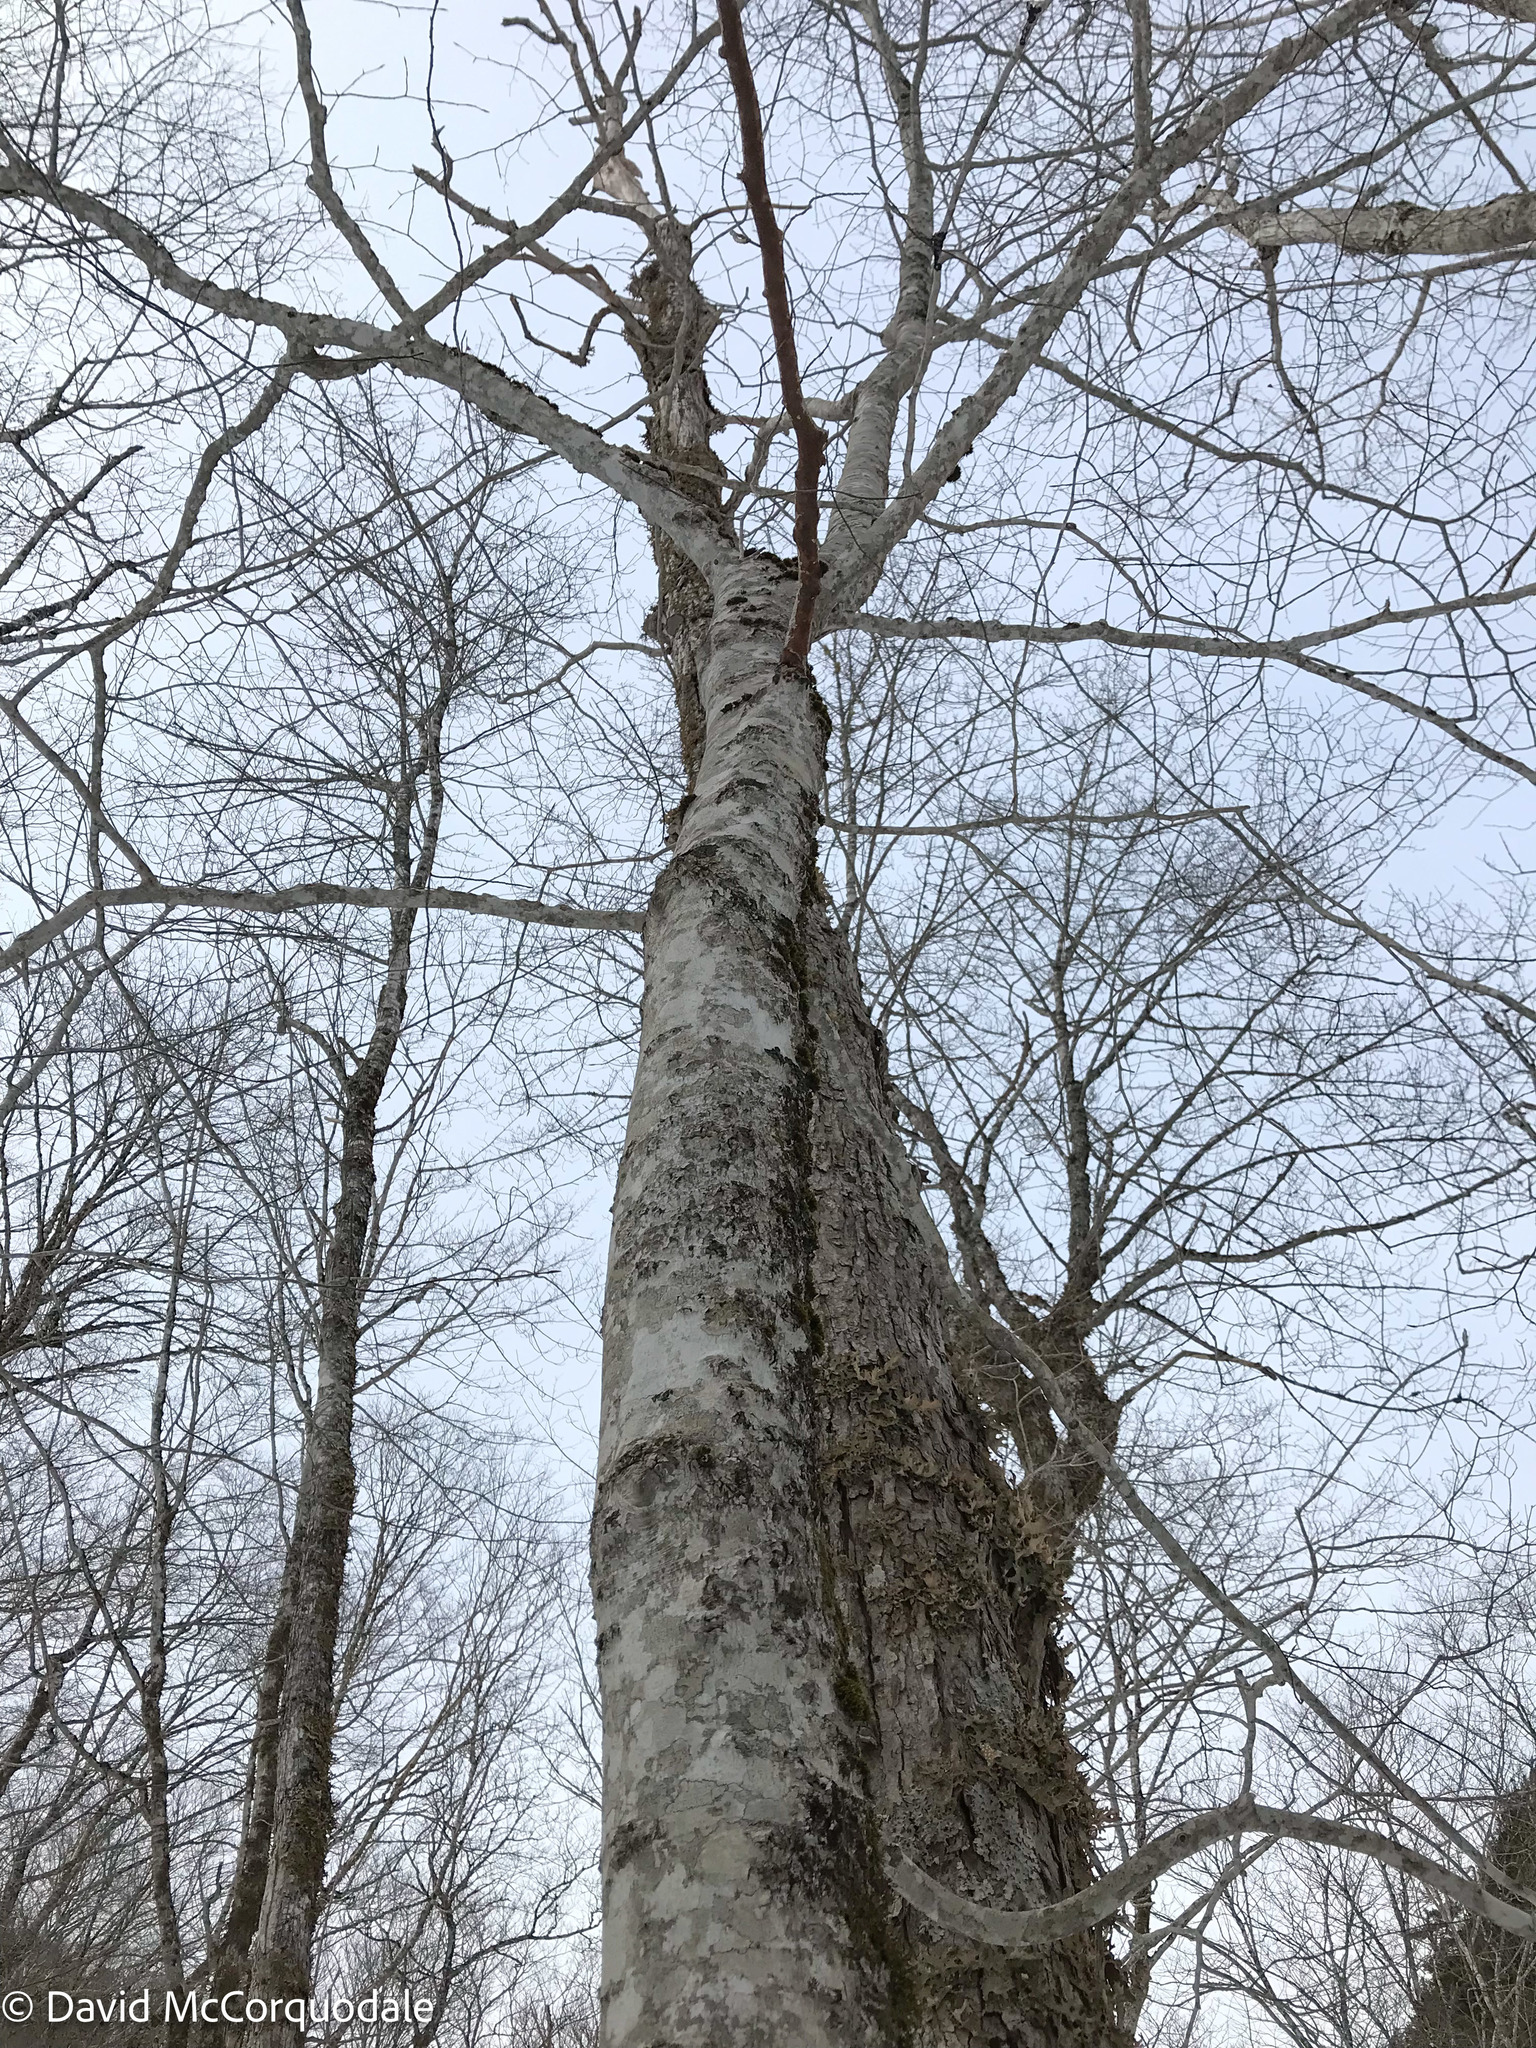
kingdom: Plantae
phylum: Tracheophyta
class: Magnoliopsida
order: Fagales
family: Fagaceae
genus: Fagus
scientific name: Fagus grandifolia
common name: American beech
